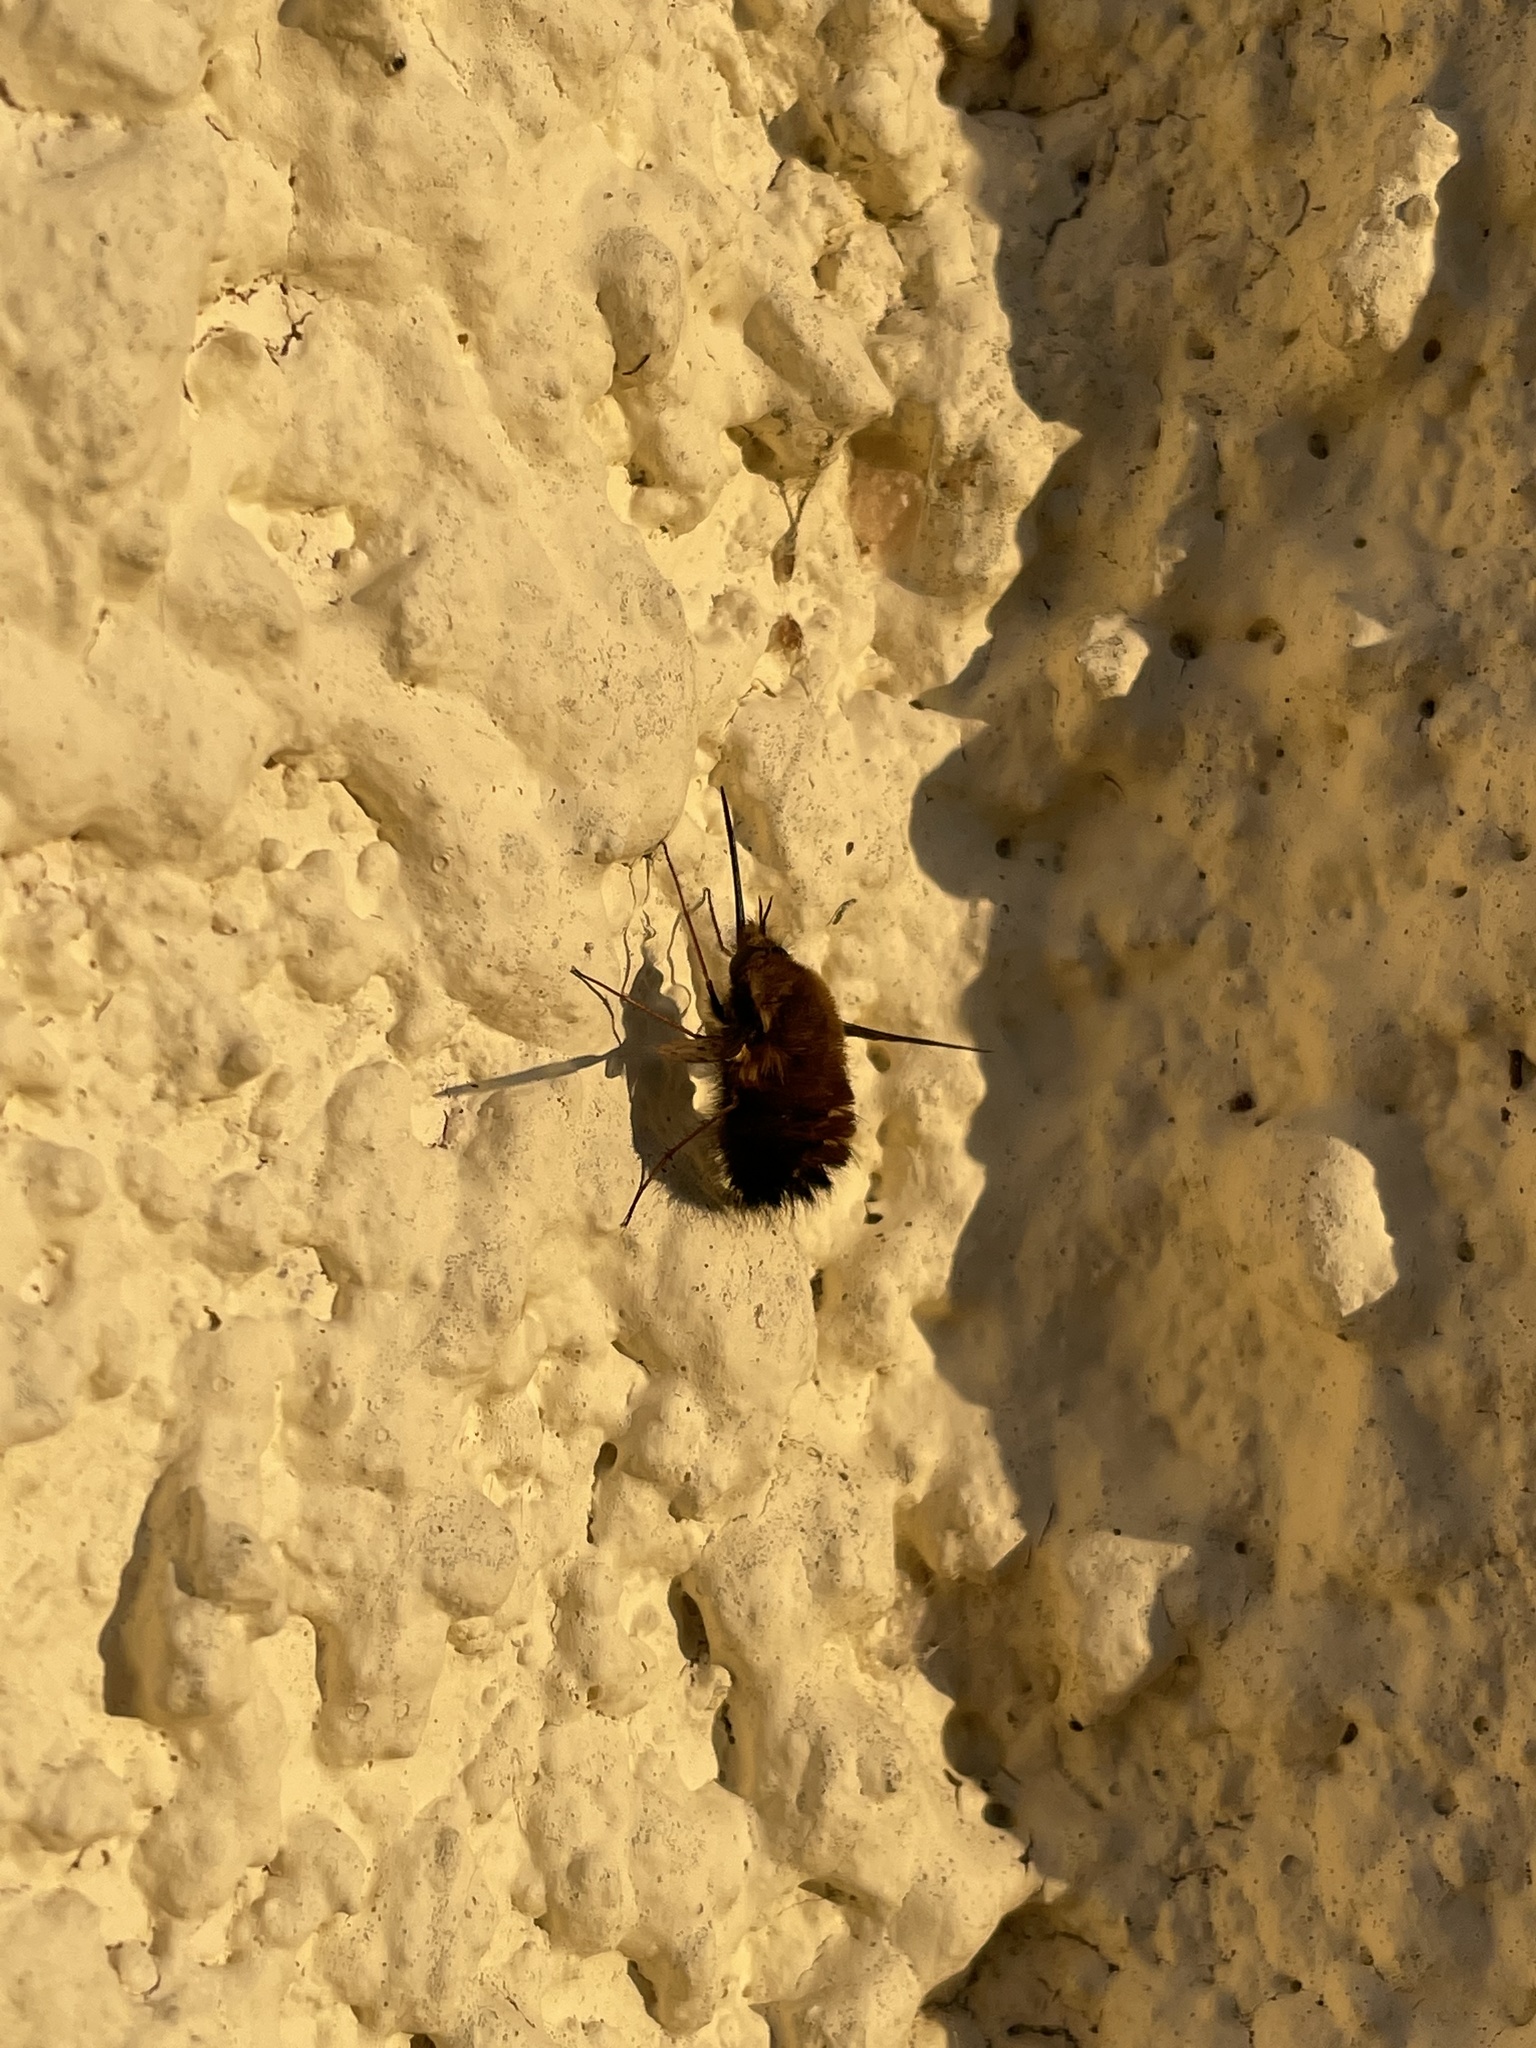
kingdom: Animalia
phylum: Arthropoda
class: Insecta
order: Diptera
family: Bombyliidae
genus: Bombylius
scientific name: Bombylius discolor
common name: Dotted bee-fly
